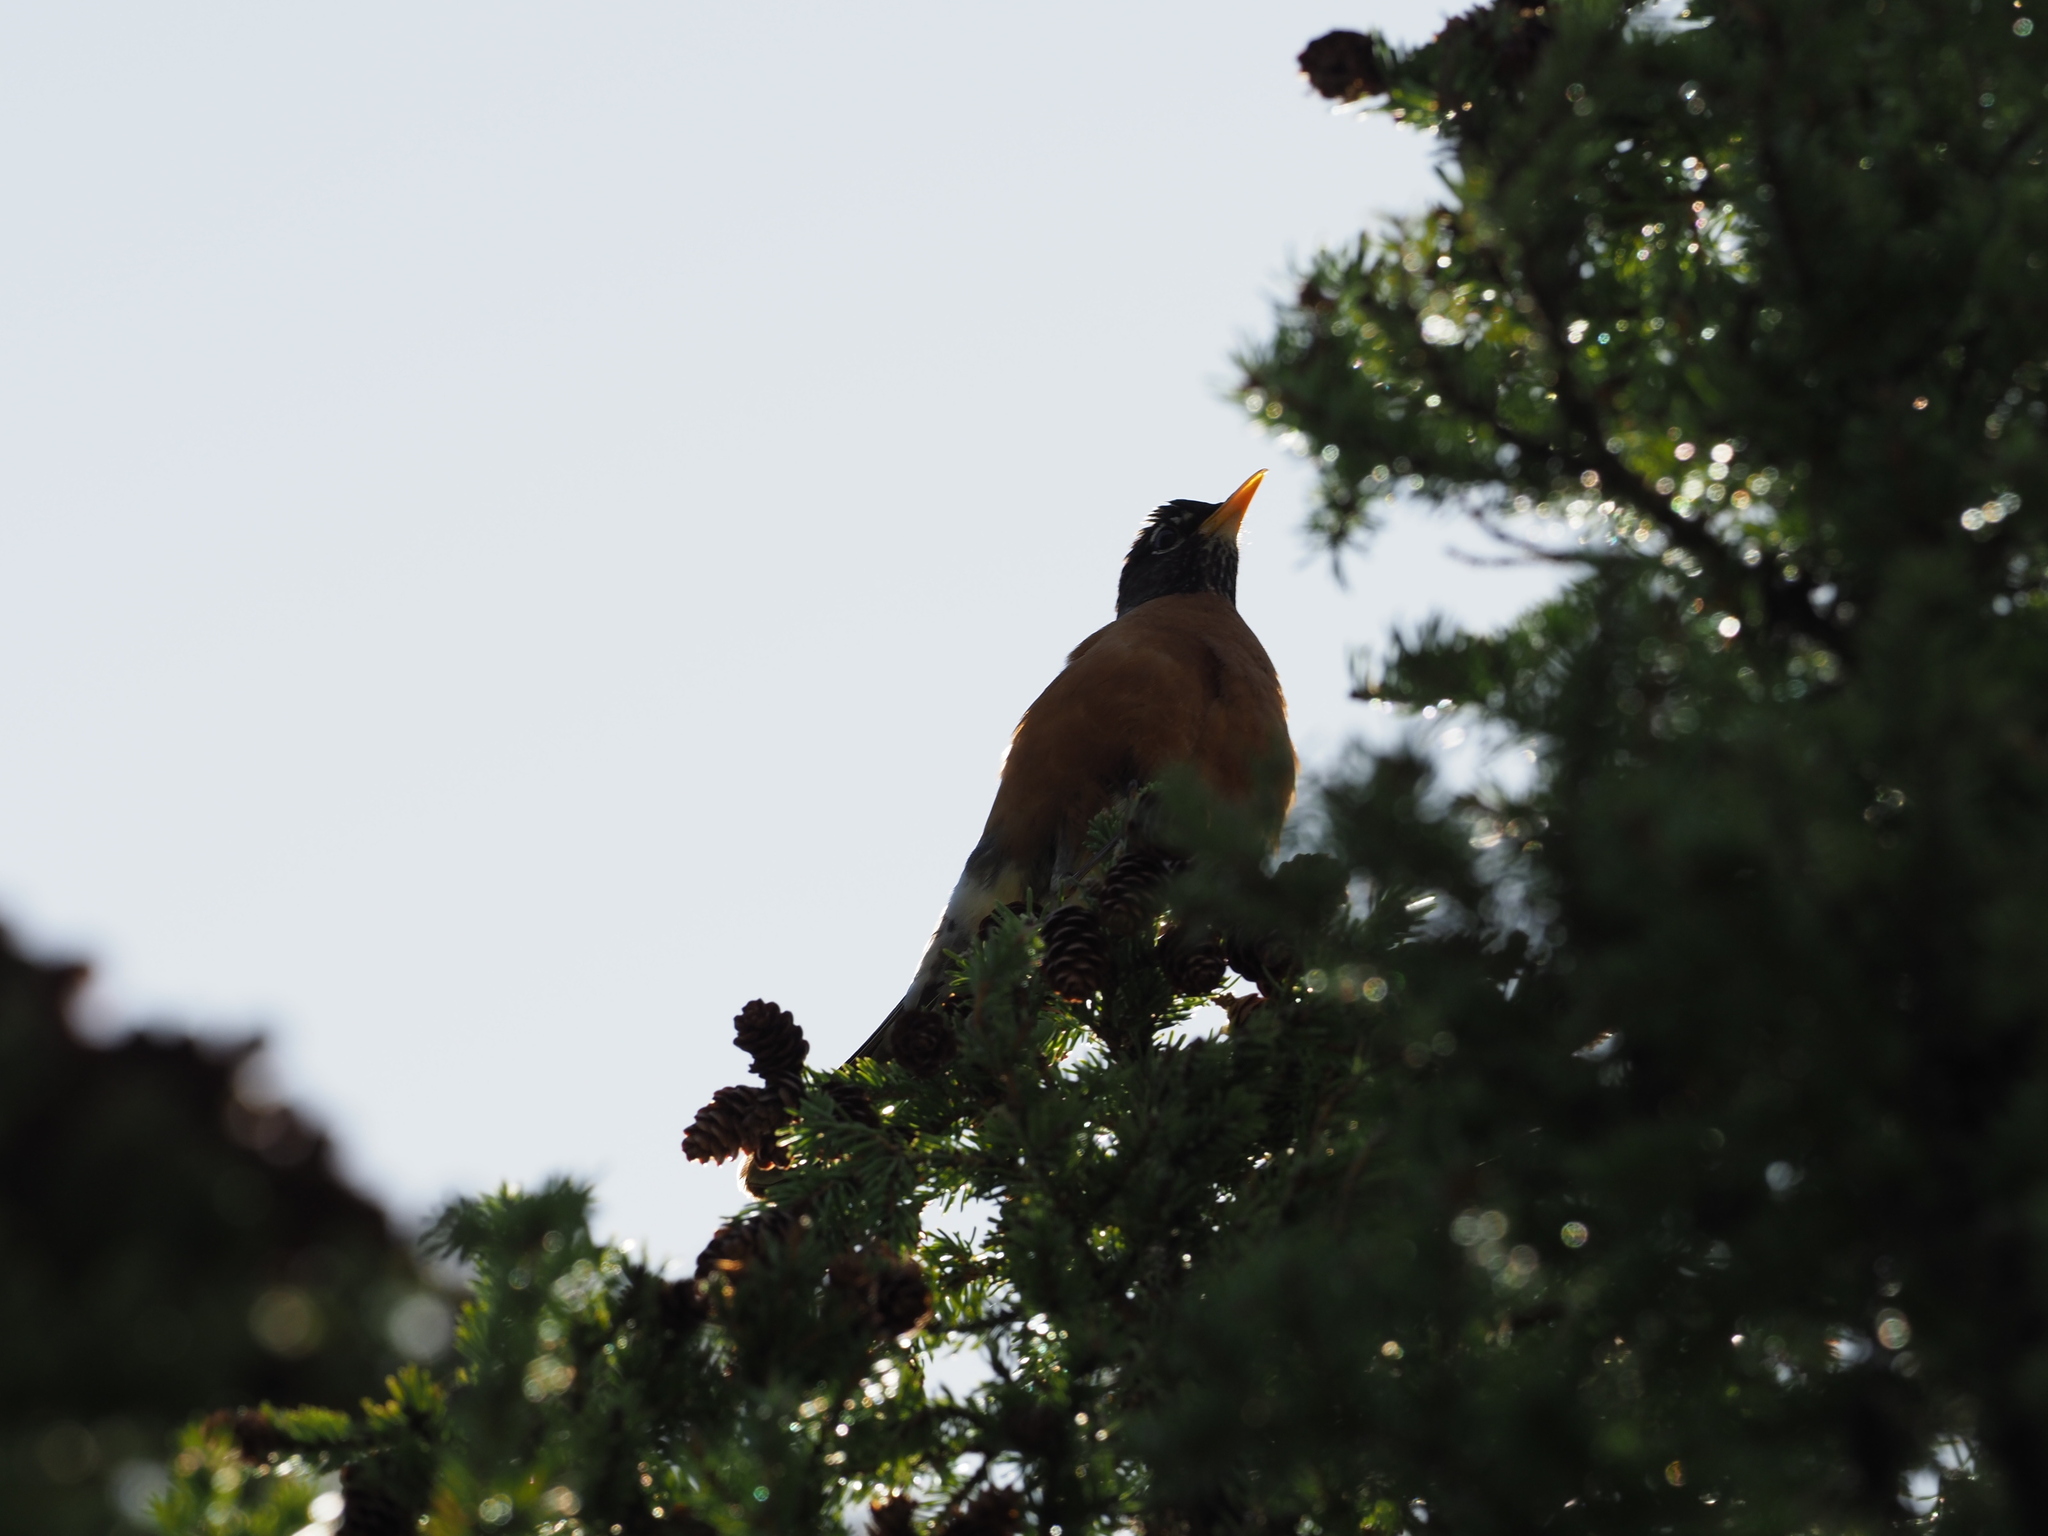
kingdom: Animalia
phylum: Chordata
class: Aves
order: Passeriformes
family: Turdidae
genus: Turdus
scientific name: Turdus migratorius
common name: American robin
